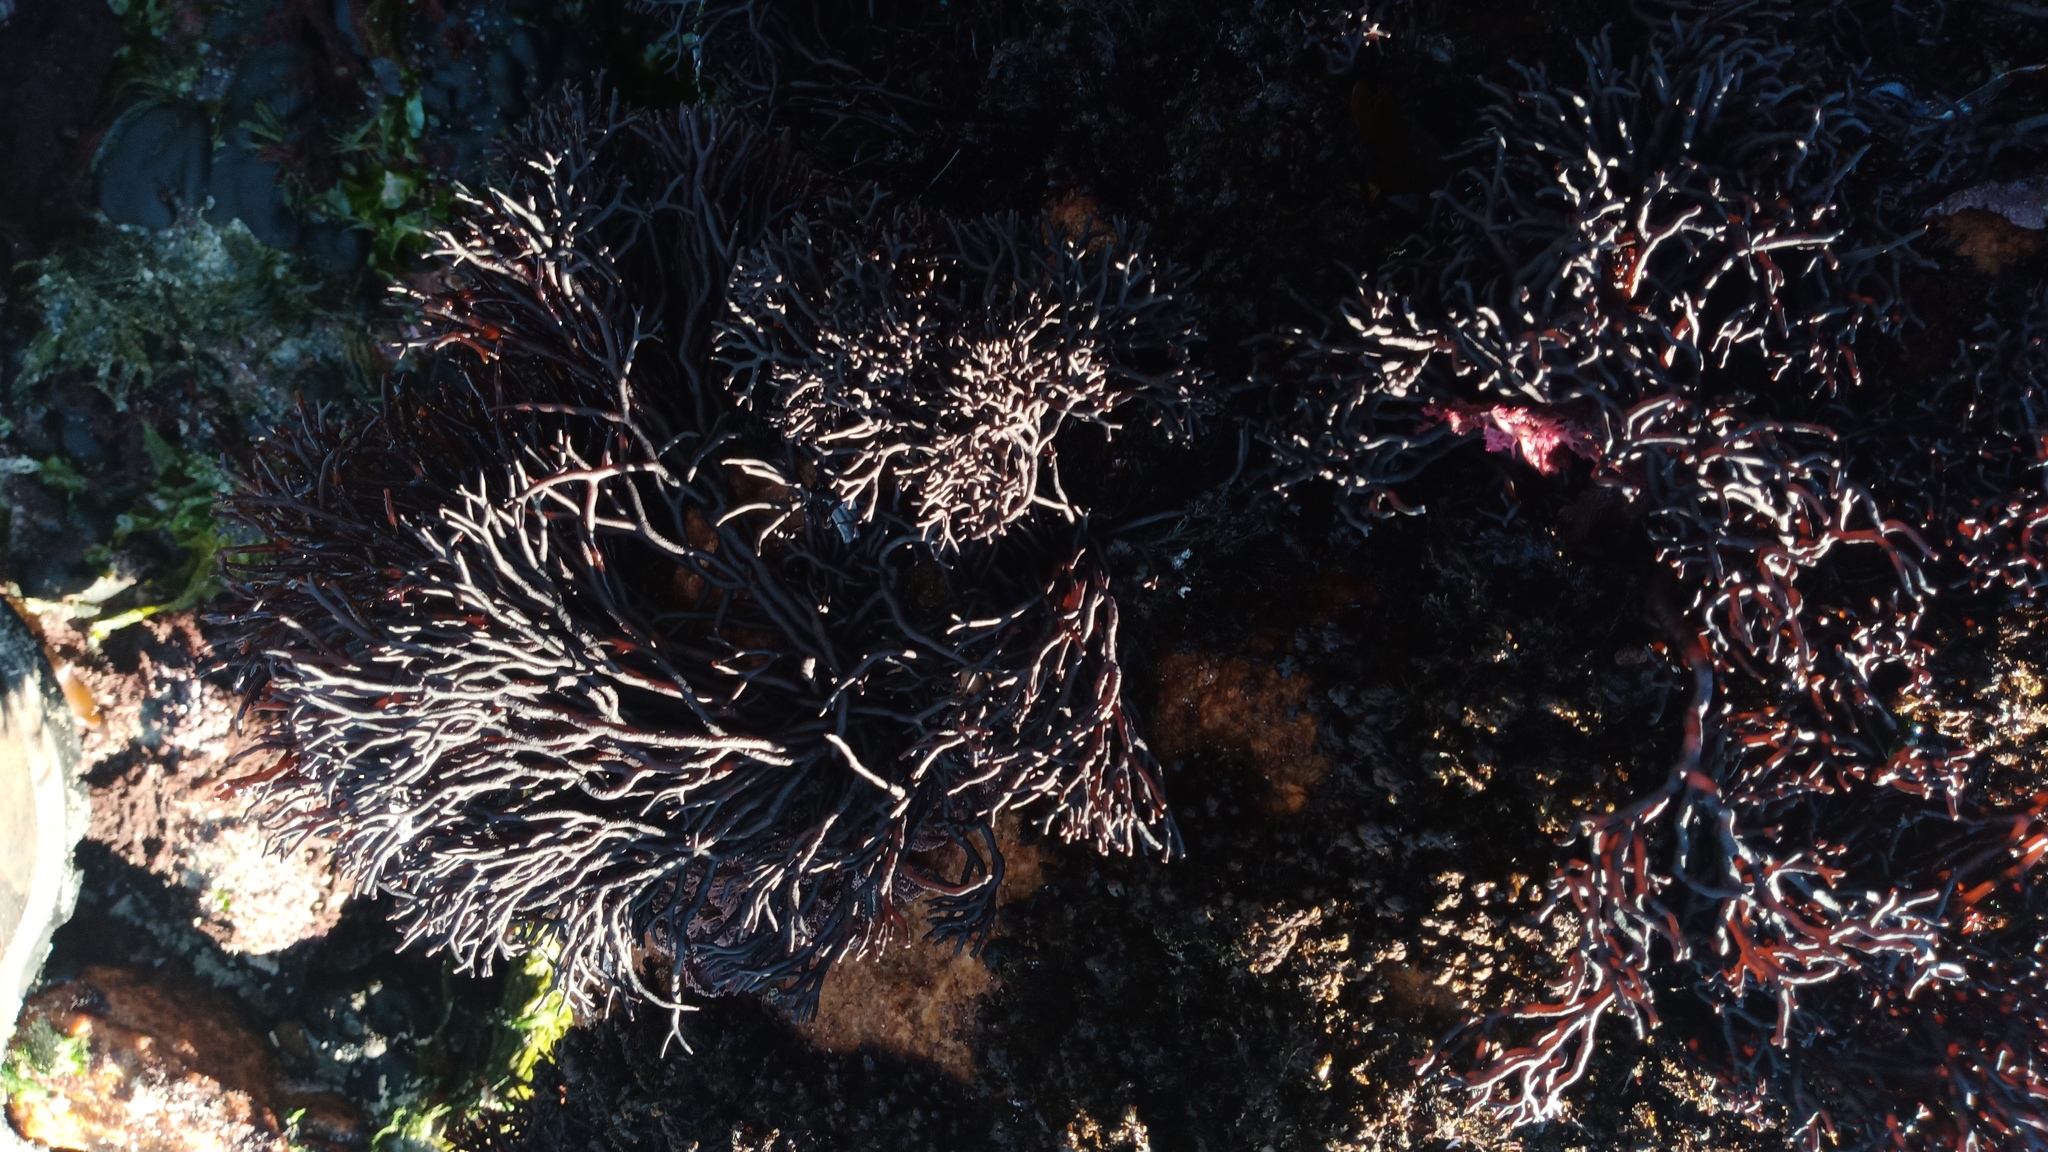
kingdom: Plantae
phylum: Rhodophyta
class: Florideophyceae
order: Hildenbrandiales
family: Hildenbrandiaceae
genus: Apophlaea
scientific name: Apophlaea lyallii
